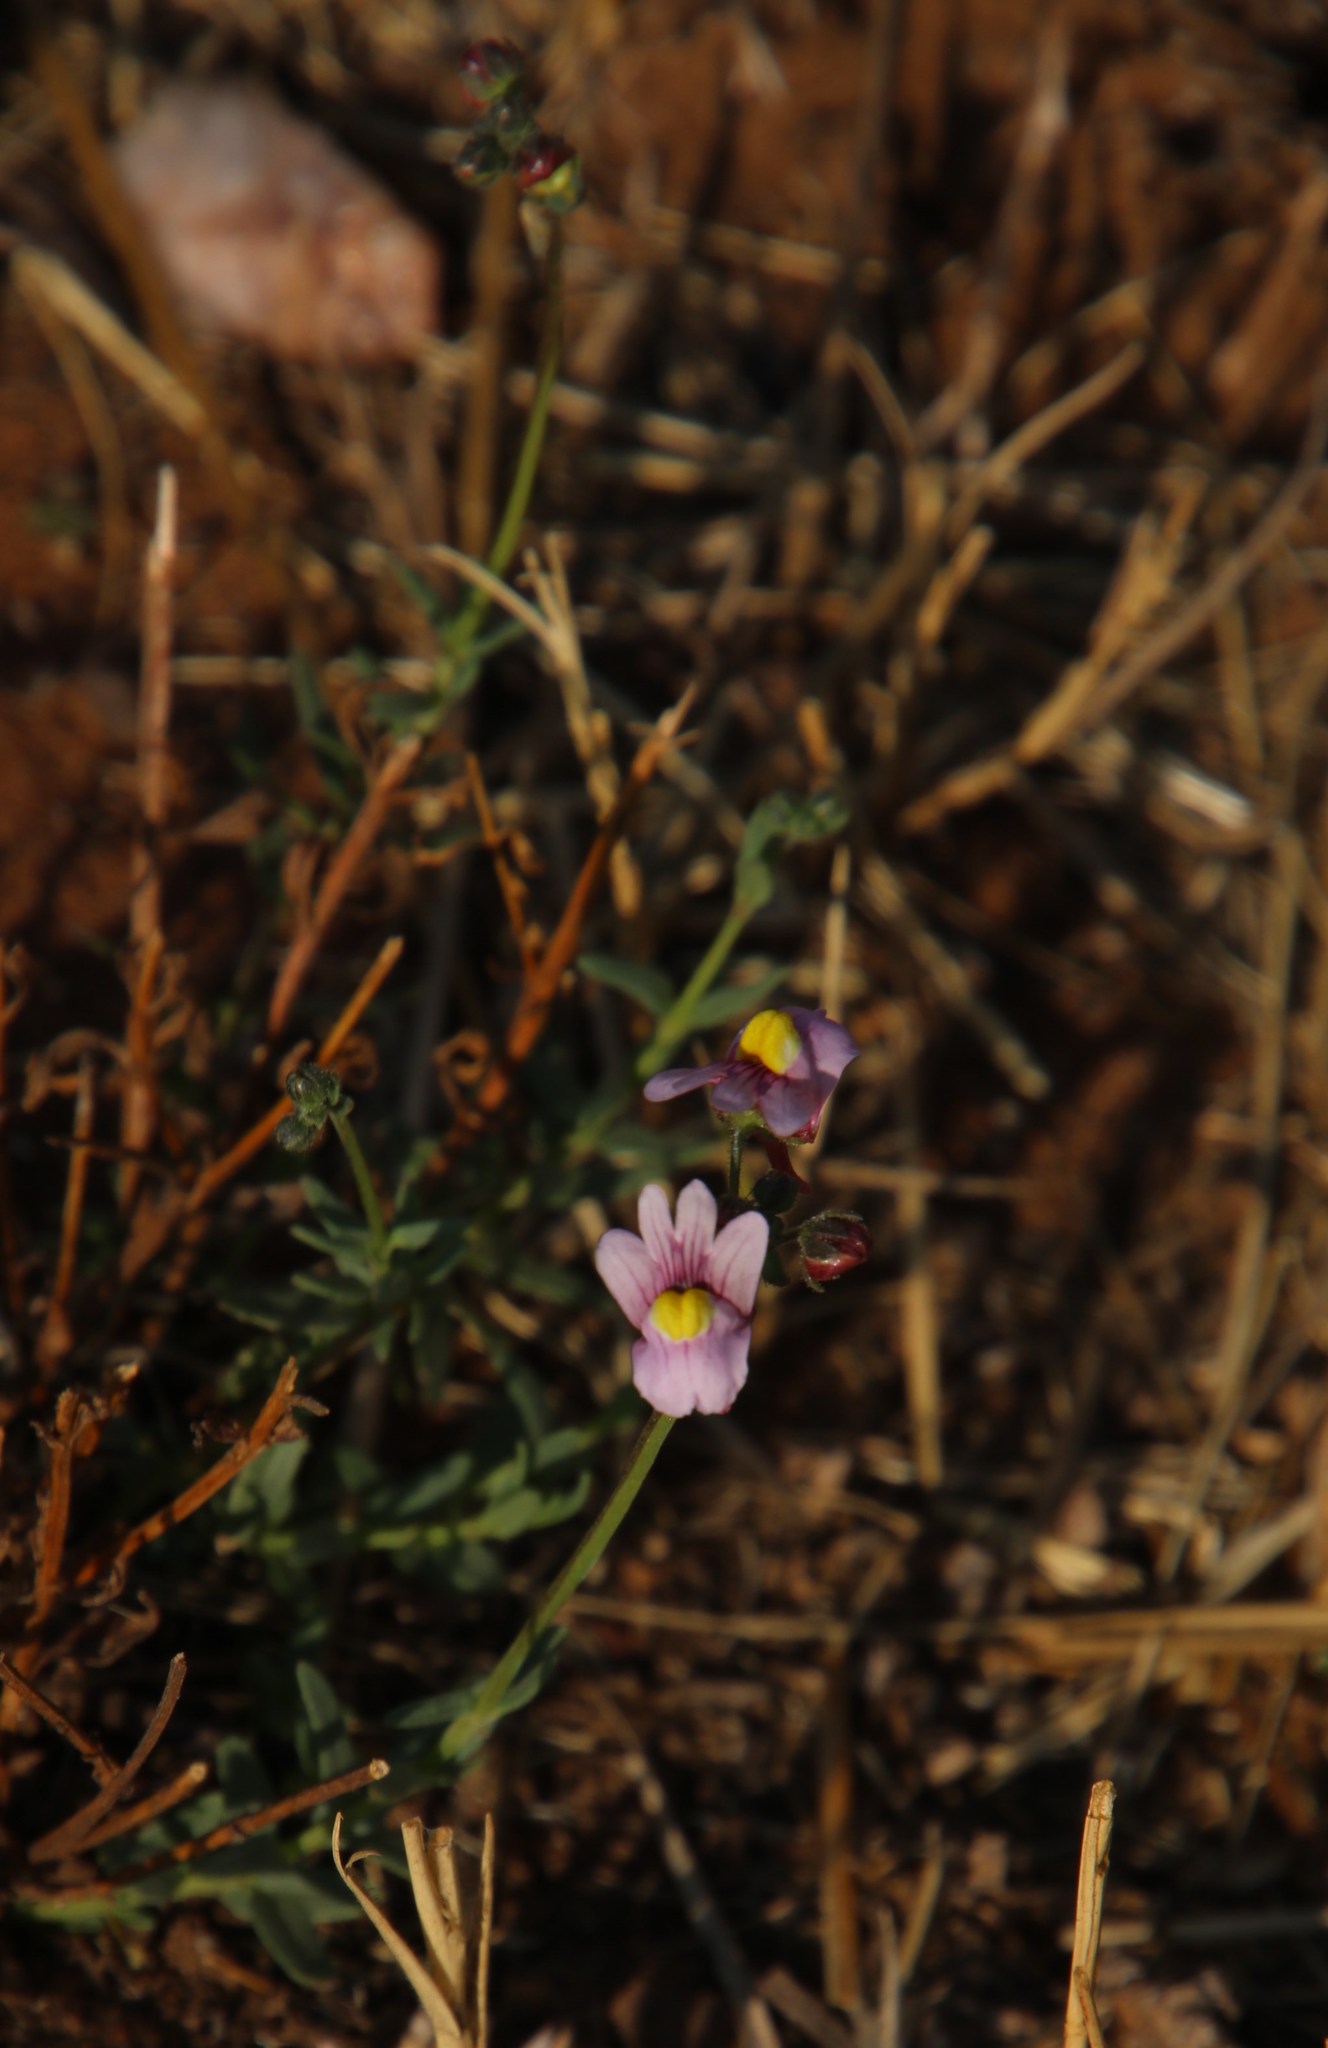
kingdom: Plantae
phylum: Tracheophyta
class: Magnoliopsida
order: Lamiales
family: Scrophulariaceae
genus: Nemesia
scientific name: Nemesia fruticans
